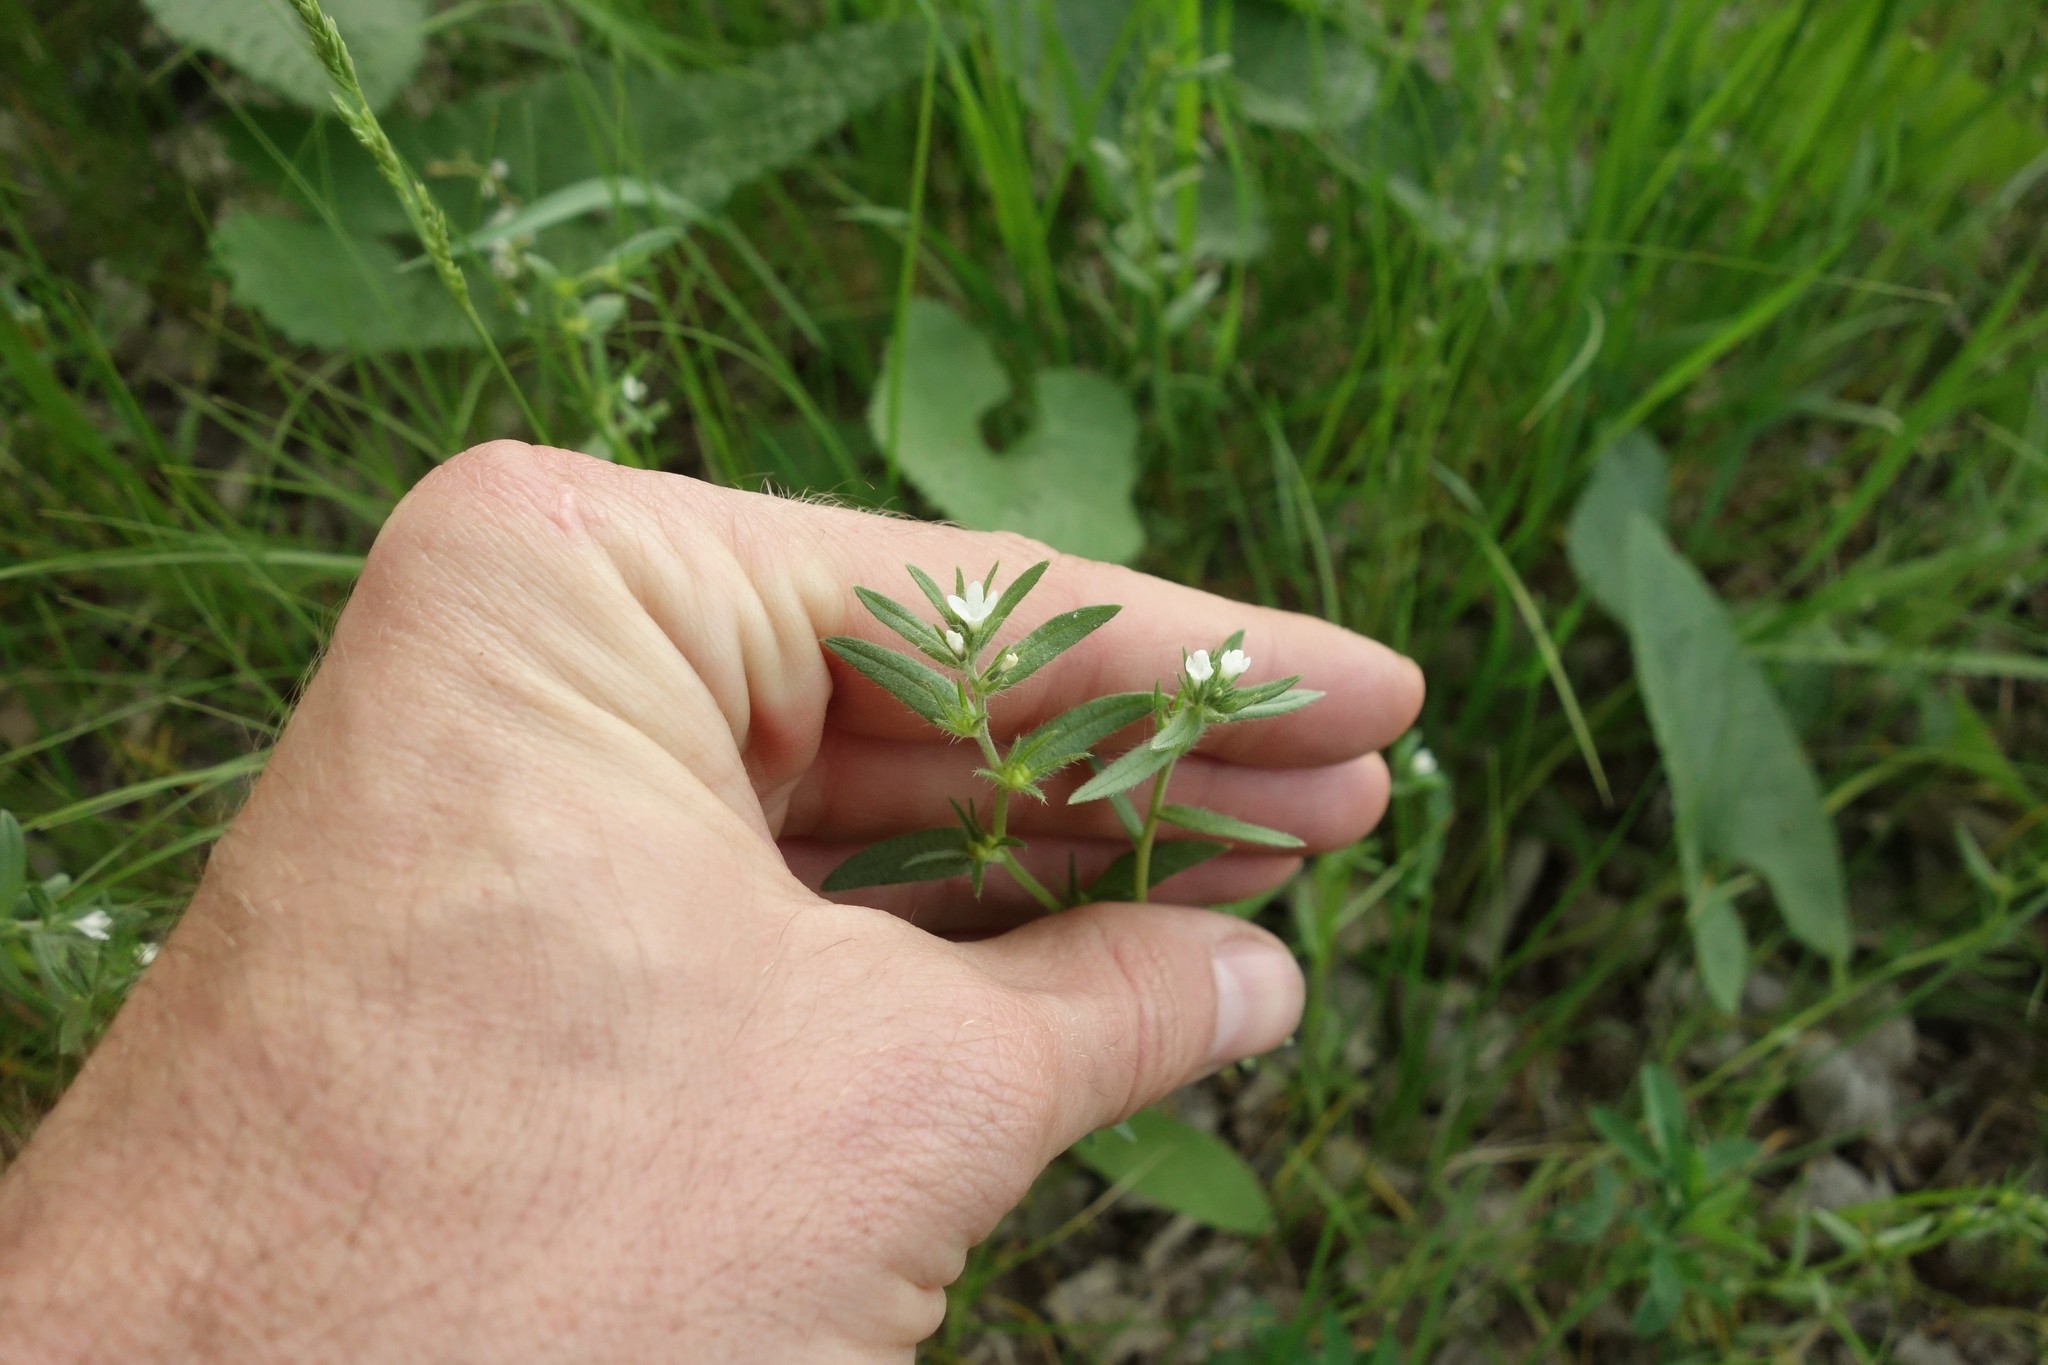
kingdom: Plantae
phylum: Tracheophyta
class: Magnoliopsida
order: Boraginales
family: Boraginaceae
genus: Buglossoides
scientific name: Buglossoides arvensis
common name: Corn gromwell
